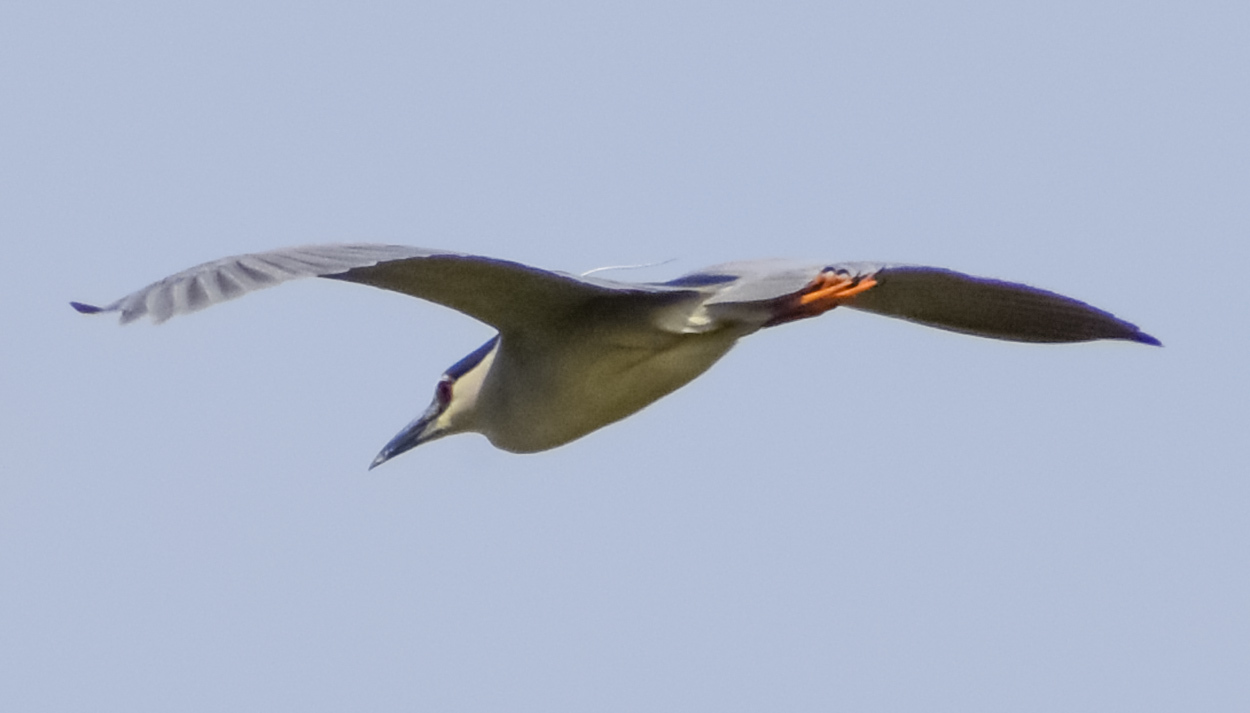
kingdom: Animalia
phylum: Chordata
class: Aves
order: Pelecaniformes
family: Ardeidae
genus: Nycticorax
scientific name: Nycticorax nycticorax
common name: Black-crowned night heron
